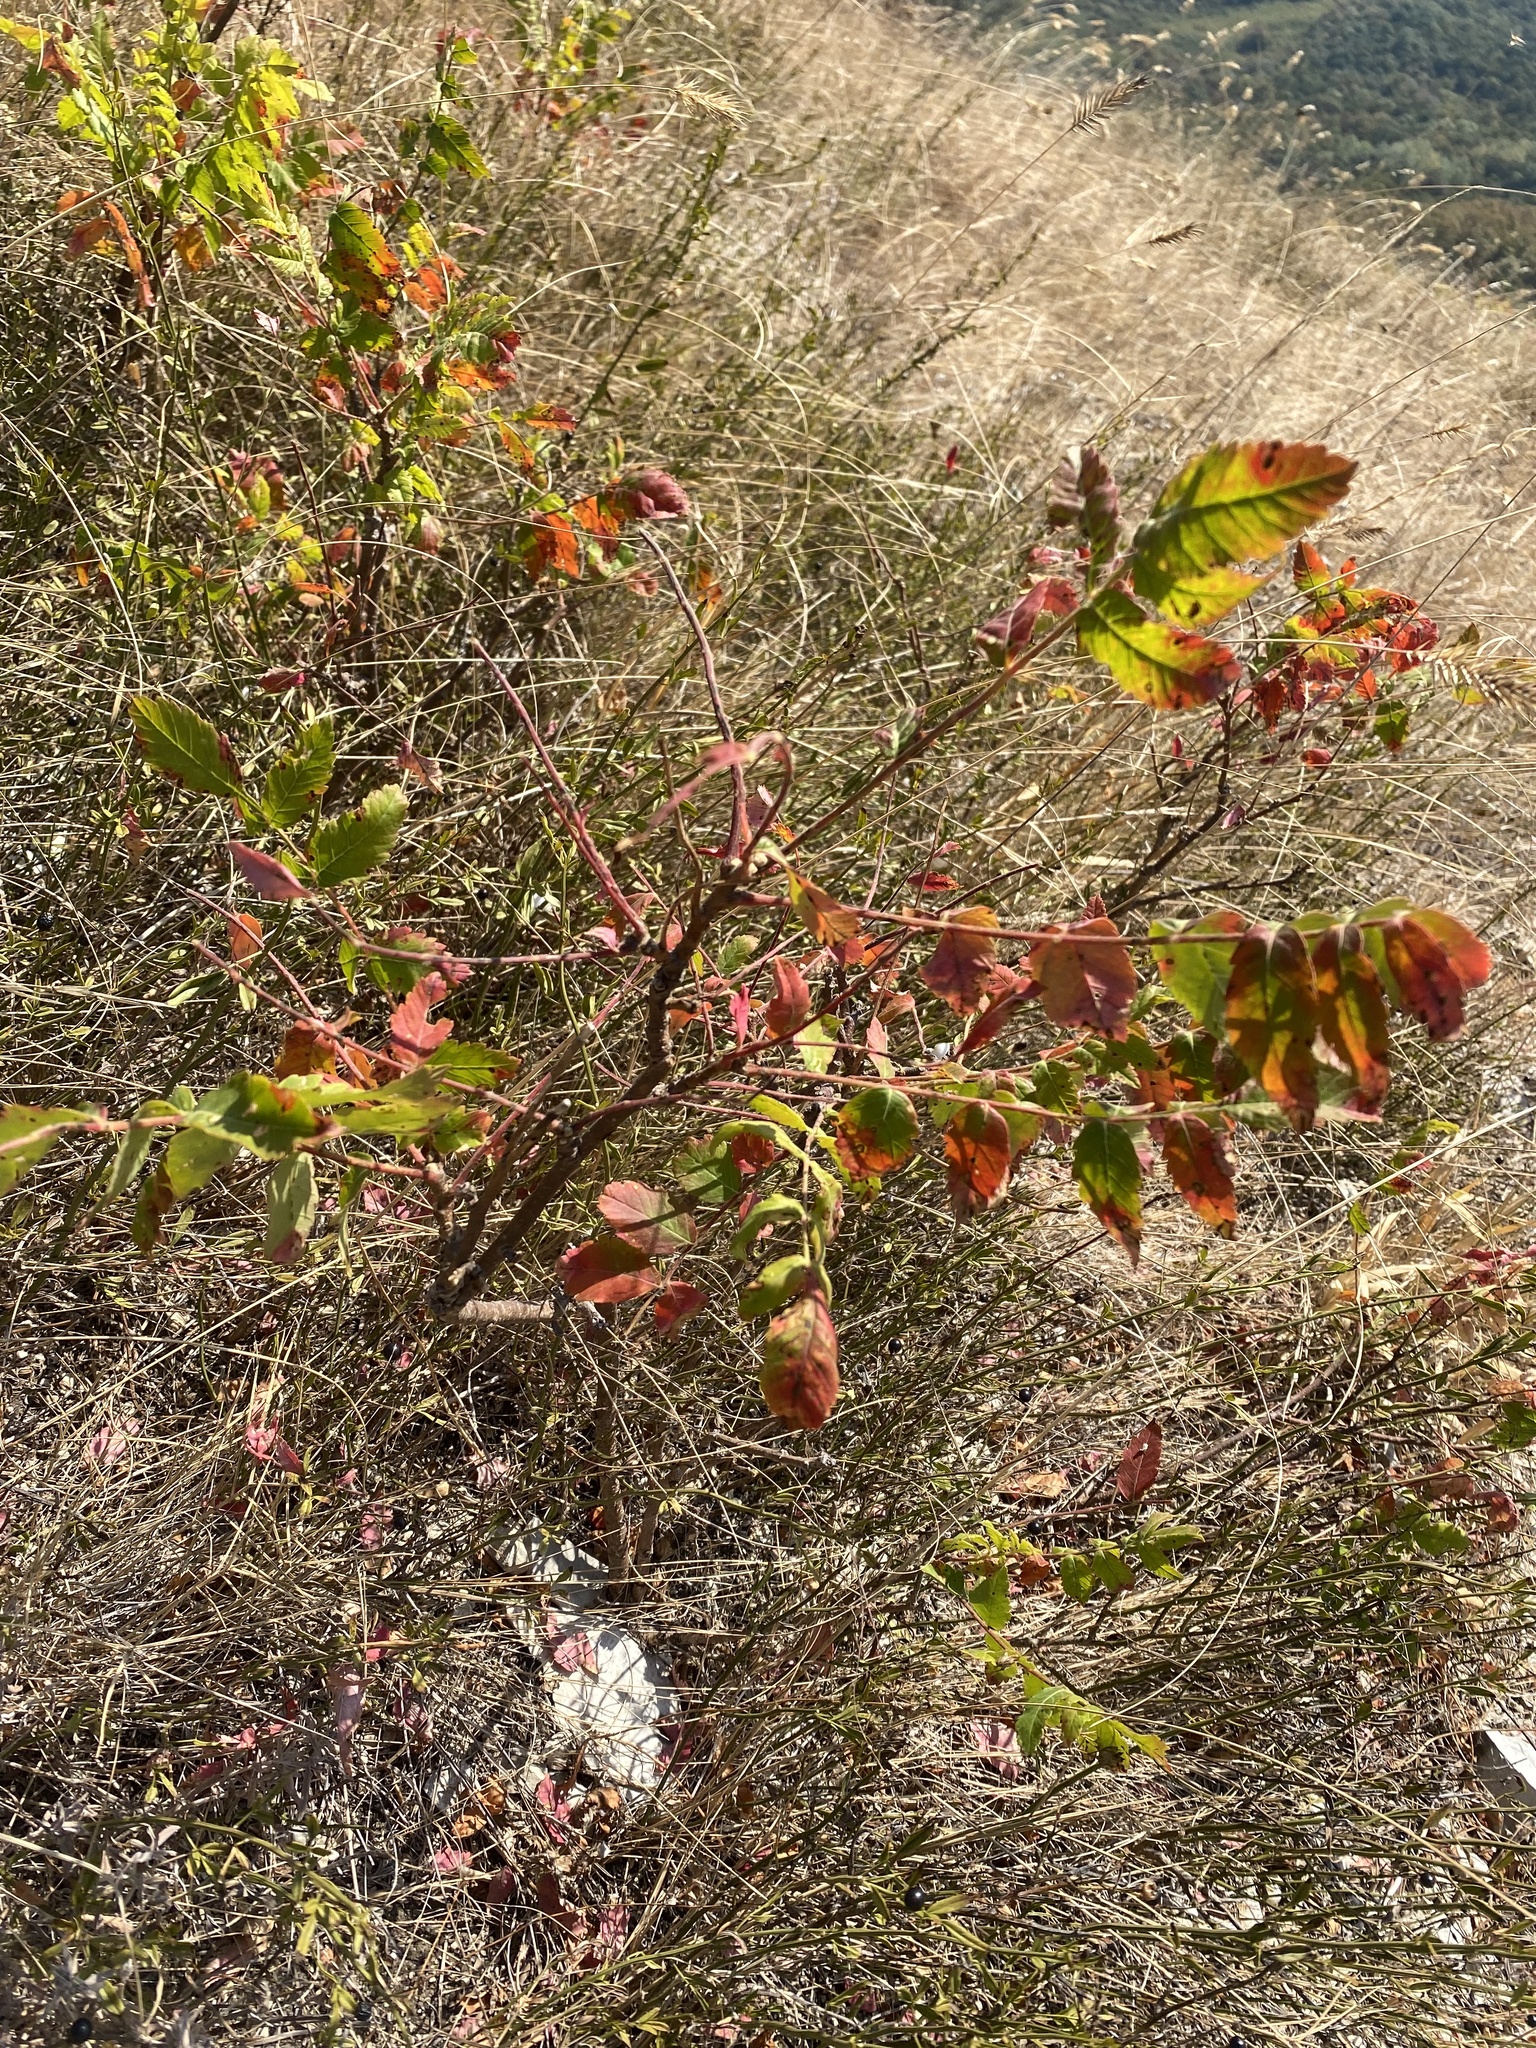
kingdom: Plantae
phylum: Tracheophyta
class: Magnoliopsida
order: Sapindales
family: Anacardiaceae
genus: Rhus
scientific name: Rhus coriaria
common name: Tanner's sumach
